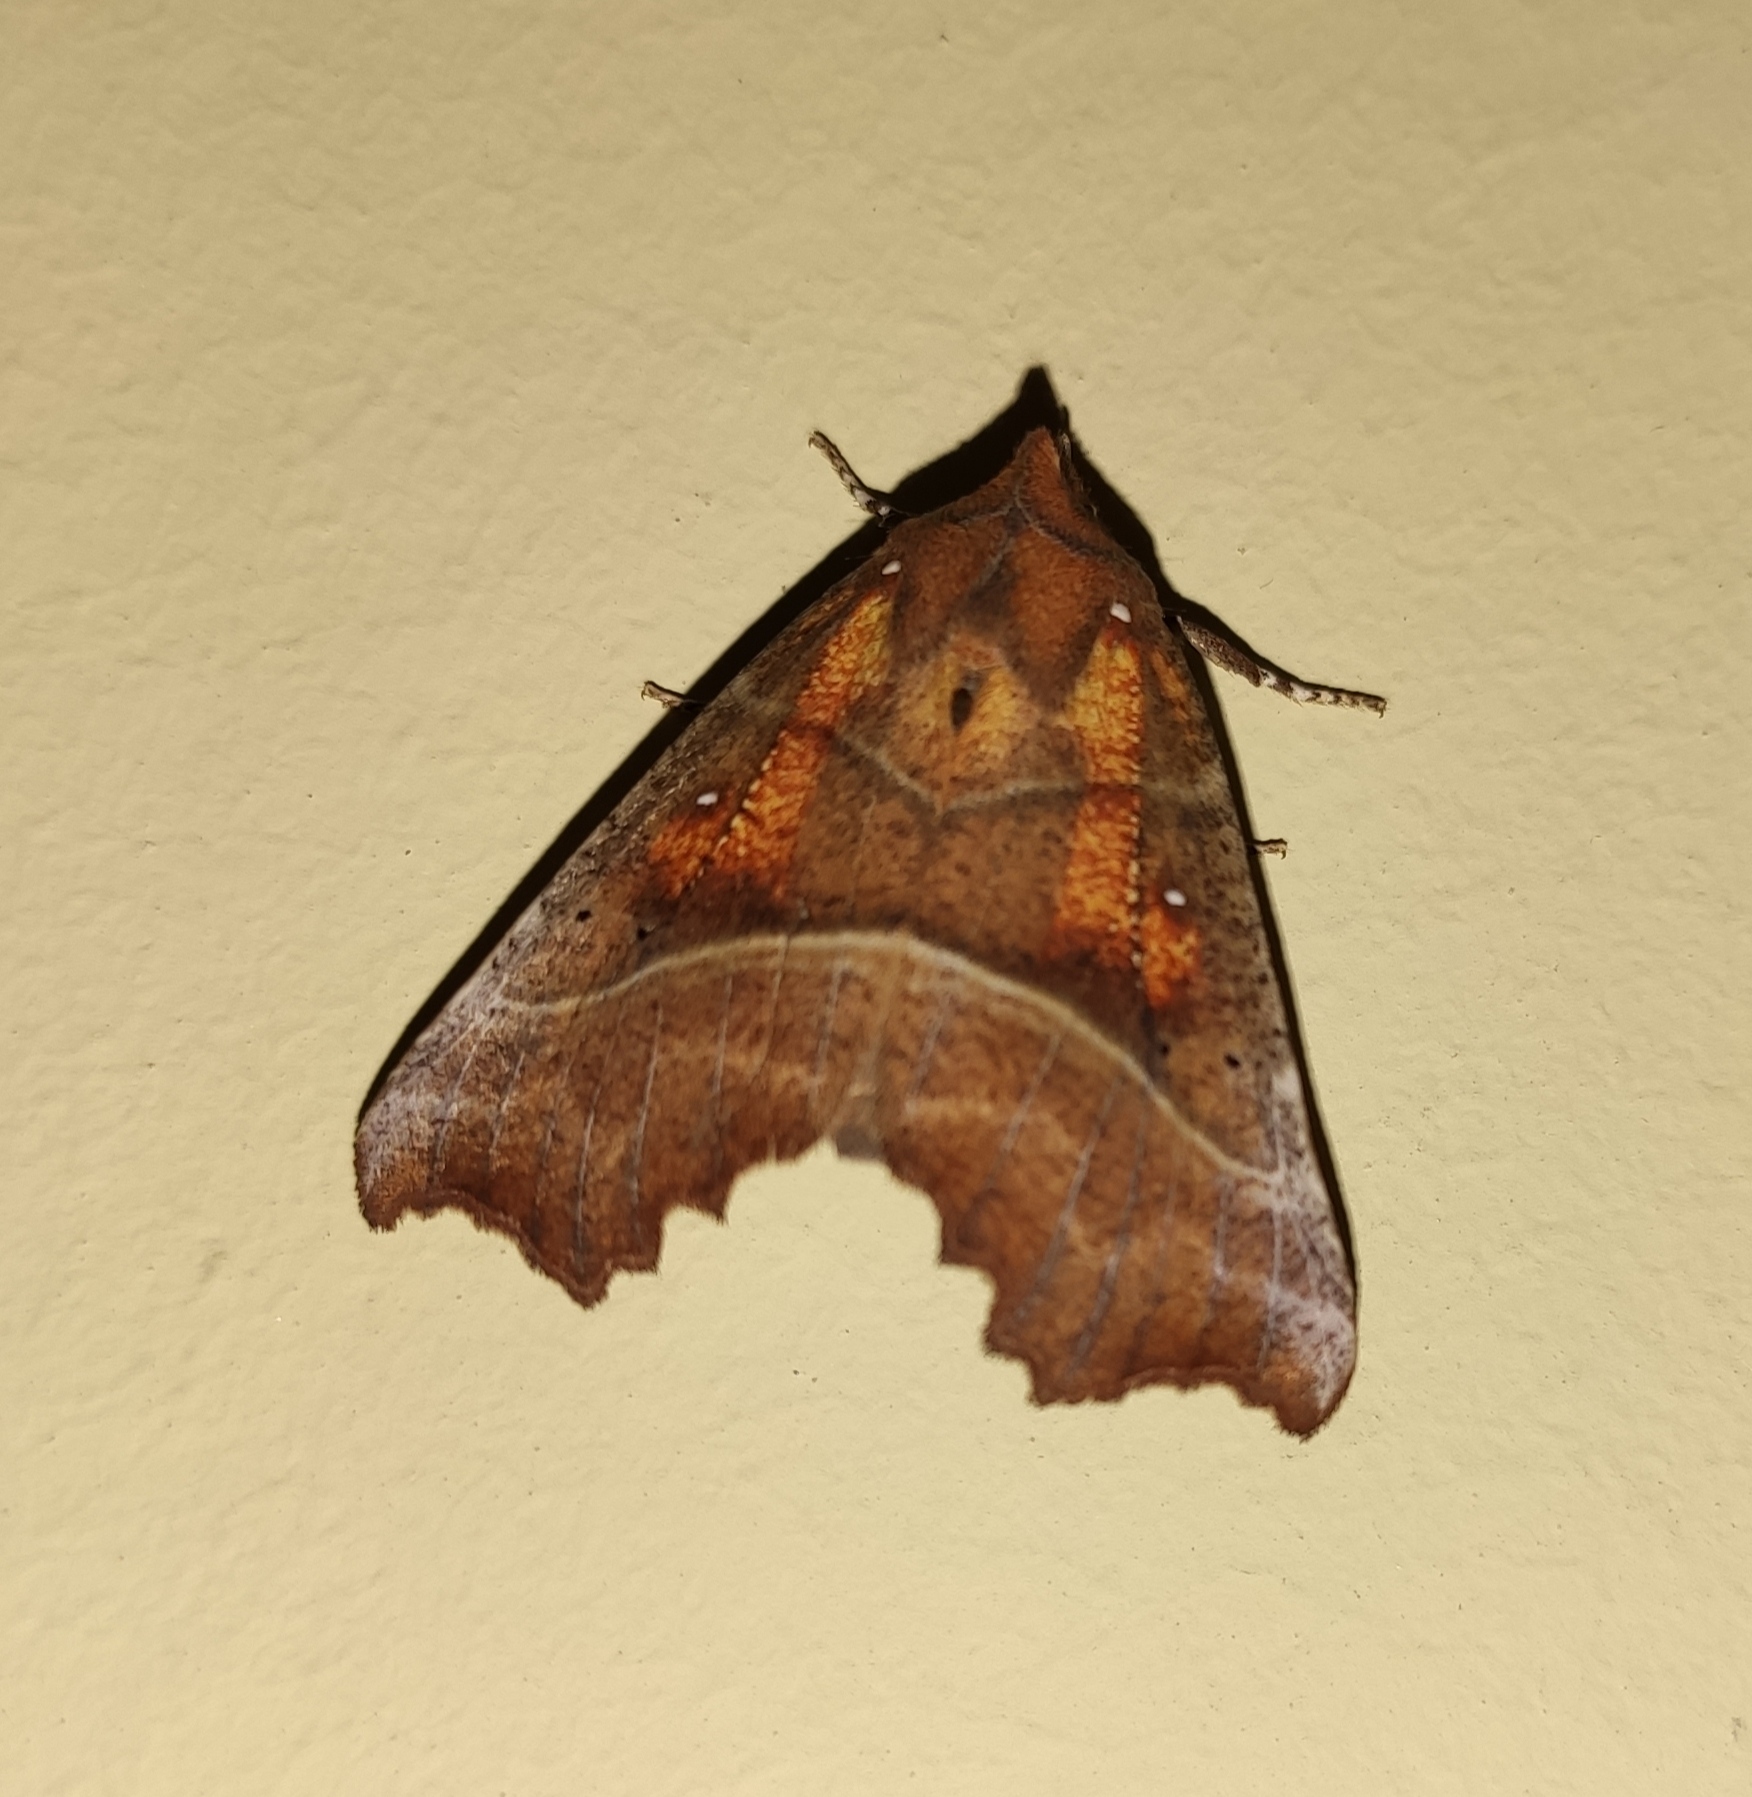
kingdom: Animalia
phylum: Arthropoda
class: Insecta
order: Lepidoptera
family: Erebidae
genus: Scoliopteryx
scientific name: Scoliopteryx libatrix
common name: Herald
